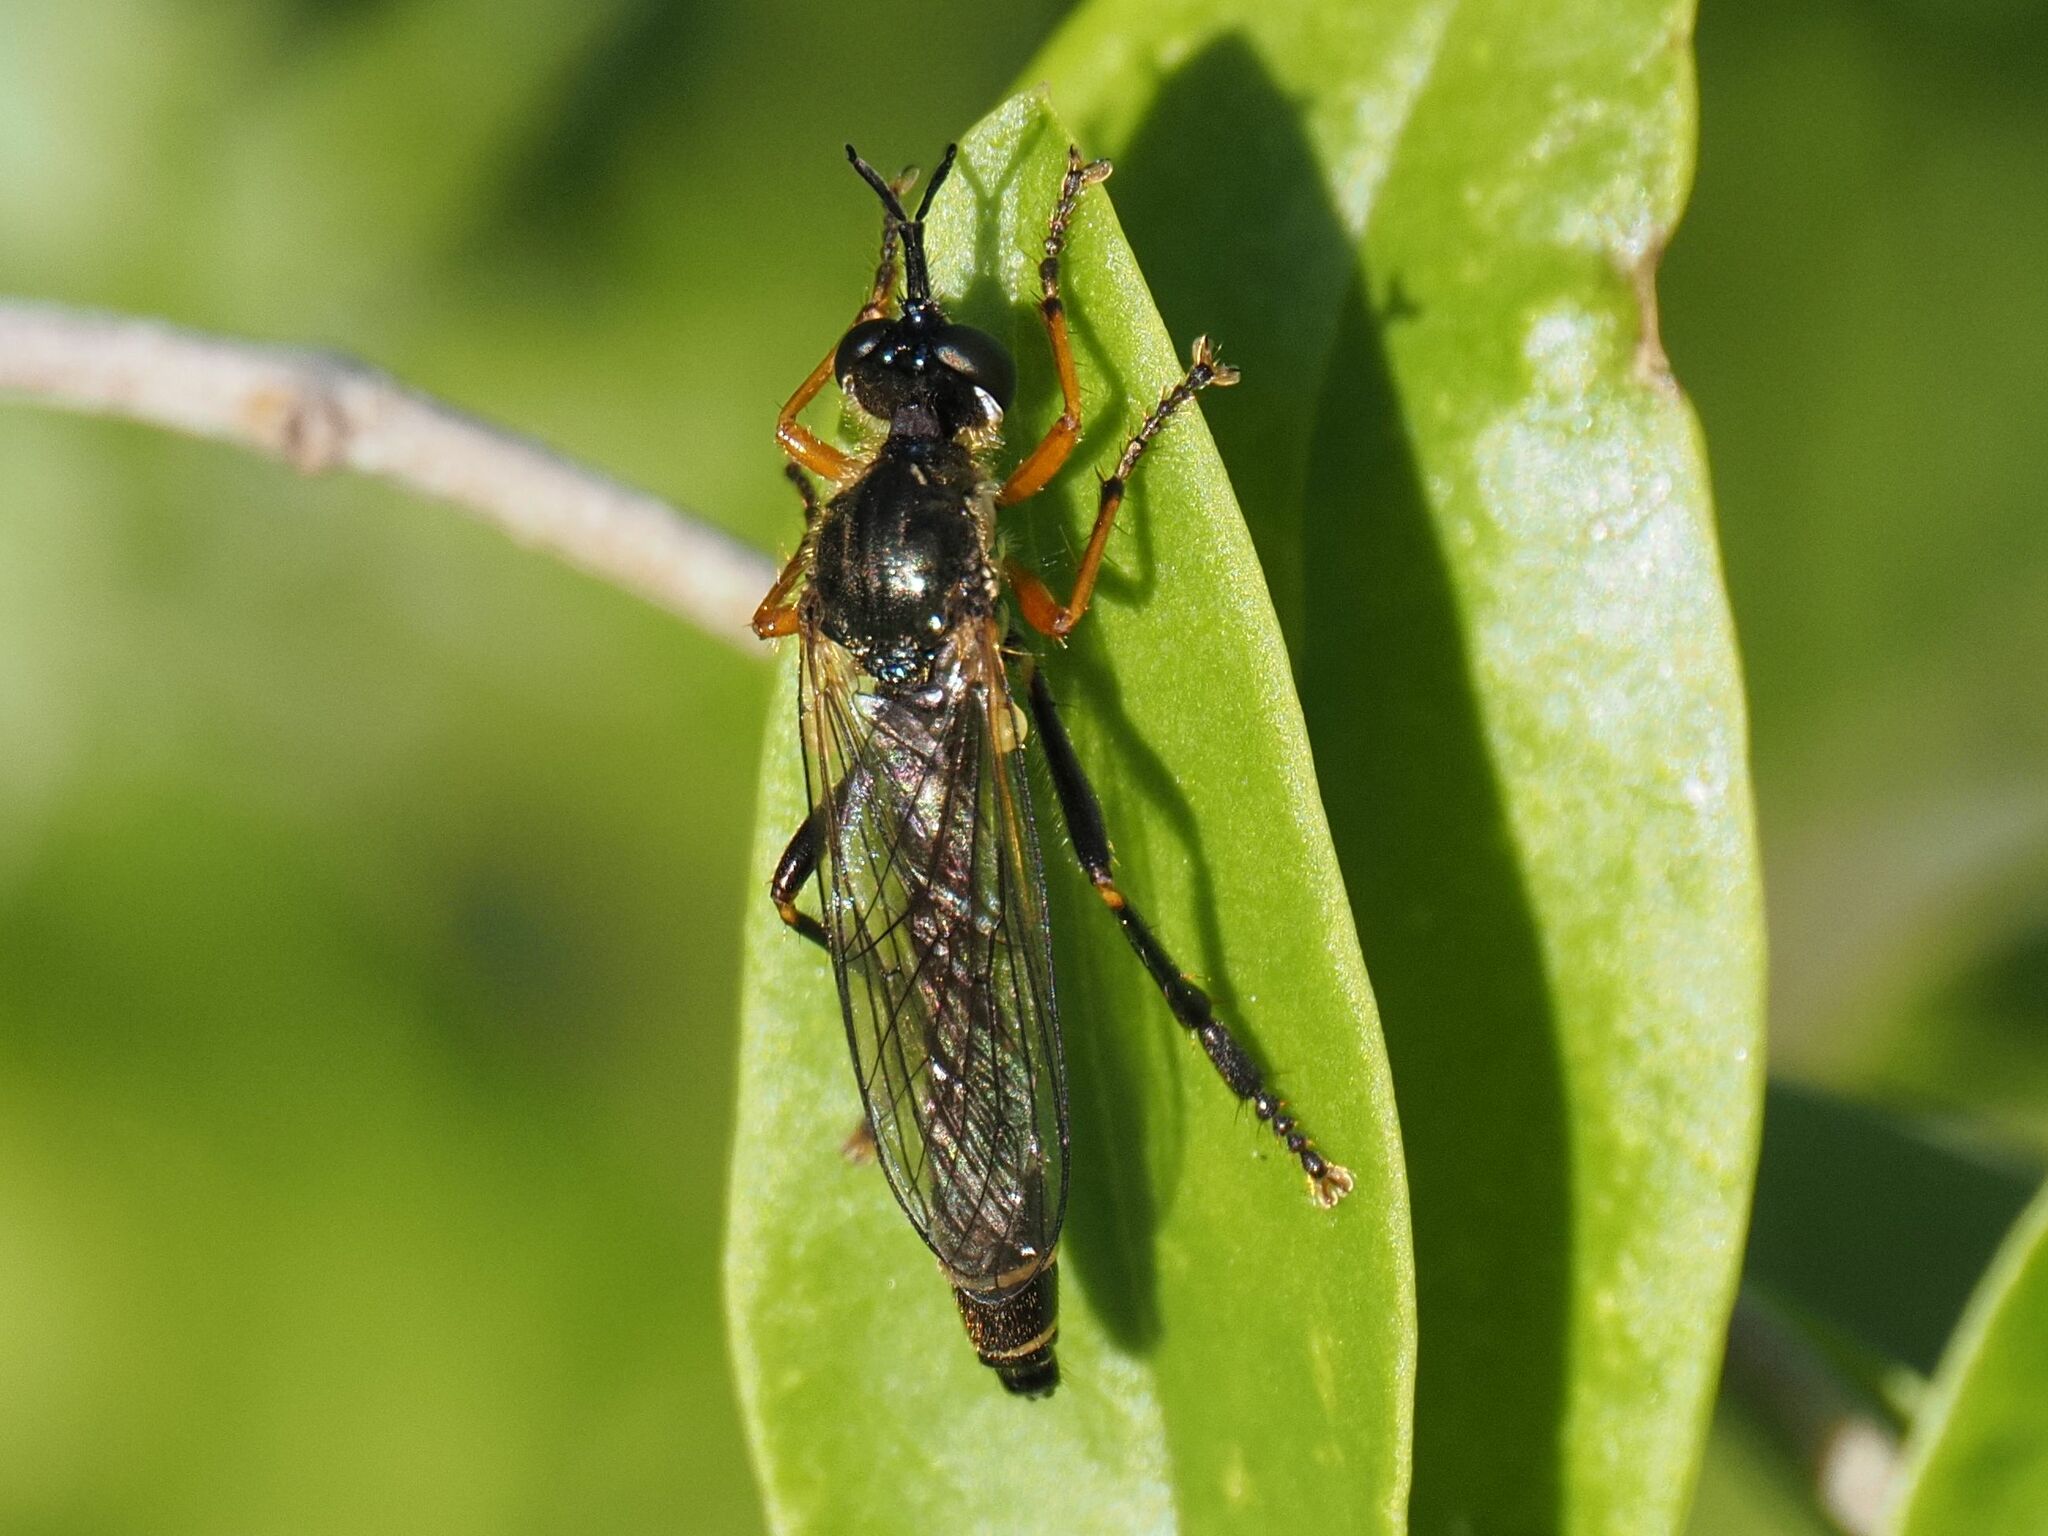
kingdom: Animalia
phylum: Arthropoda
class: Insecta
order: Diptera
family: Asilidae
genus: Dioctria
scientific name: Dioctria rufipes
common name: Common red-legged robberfly
